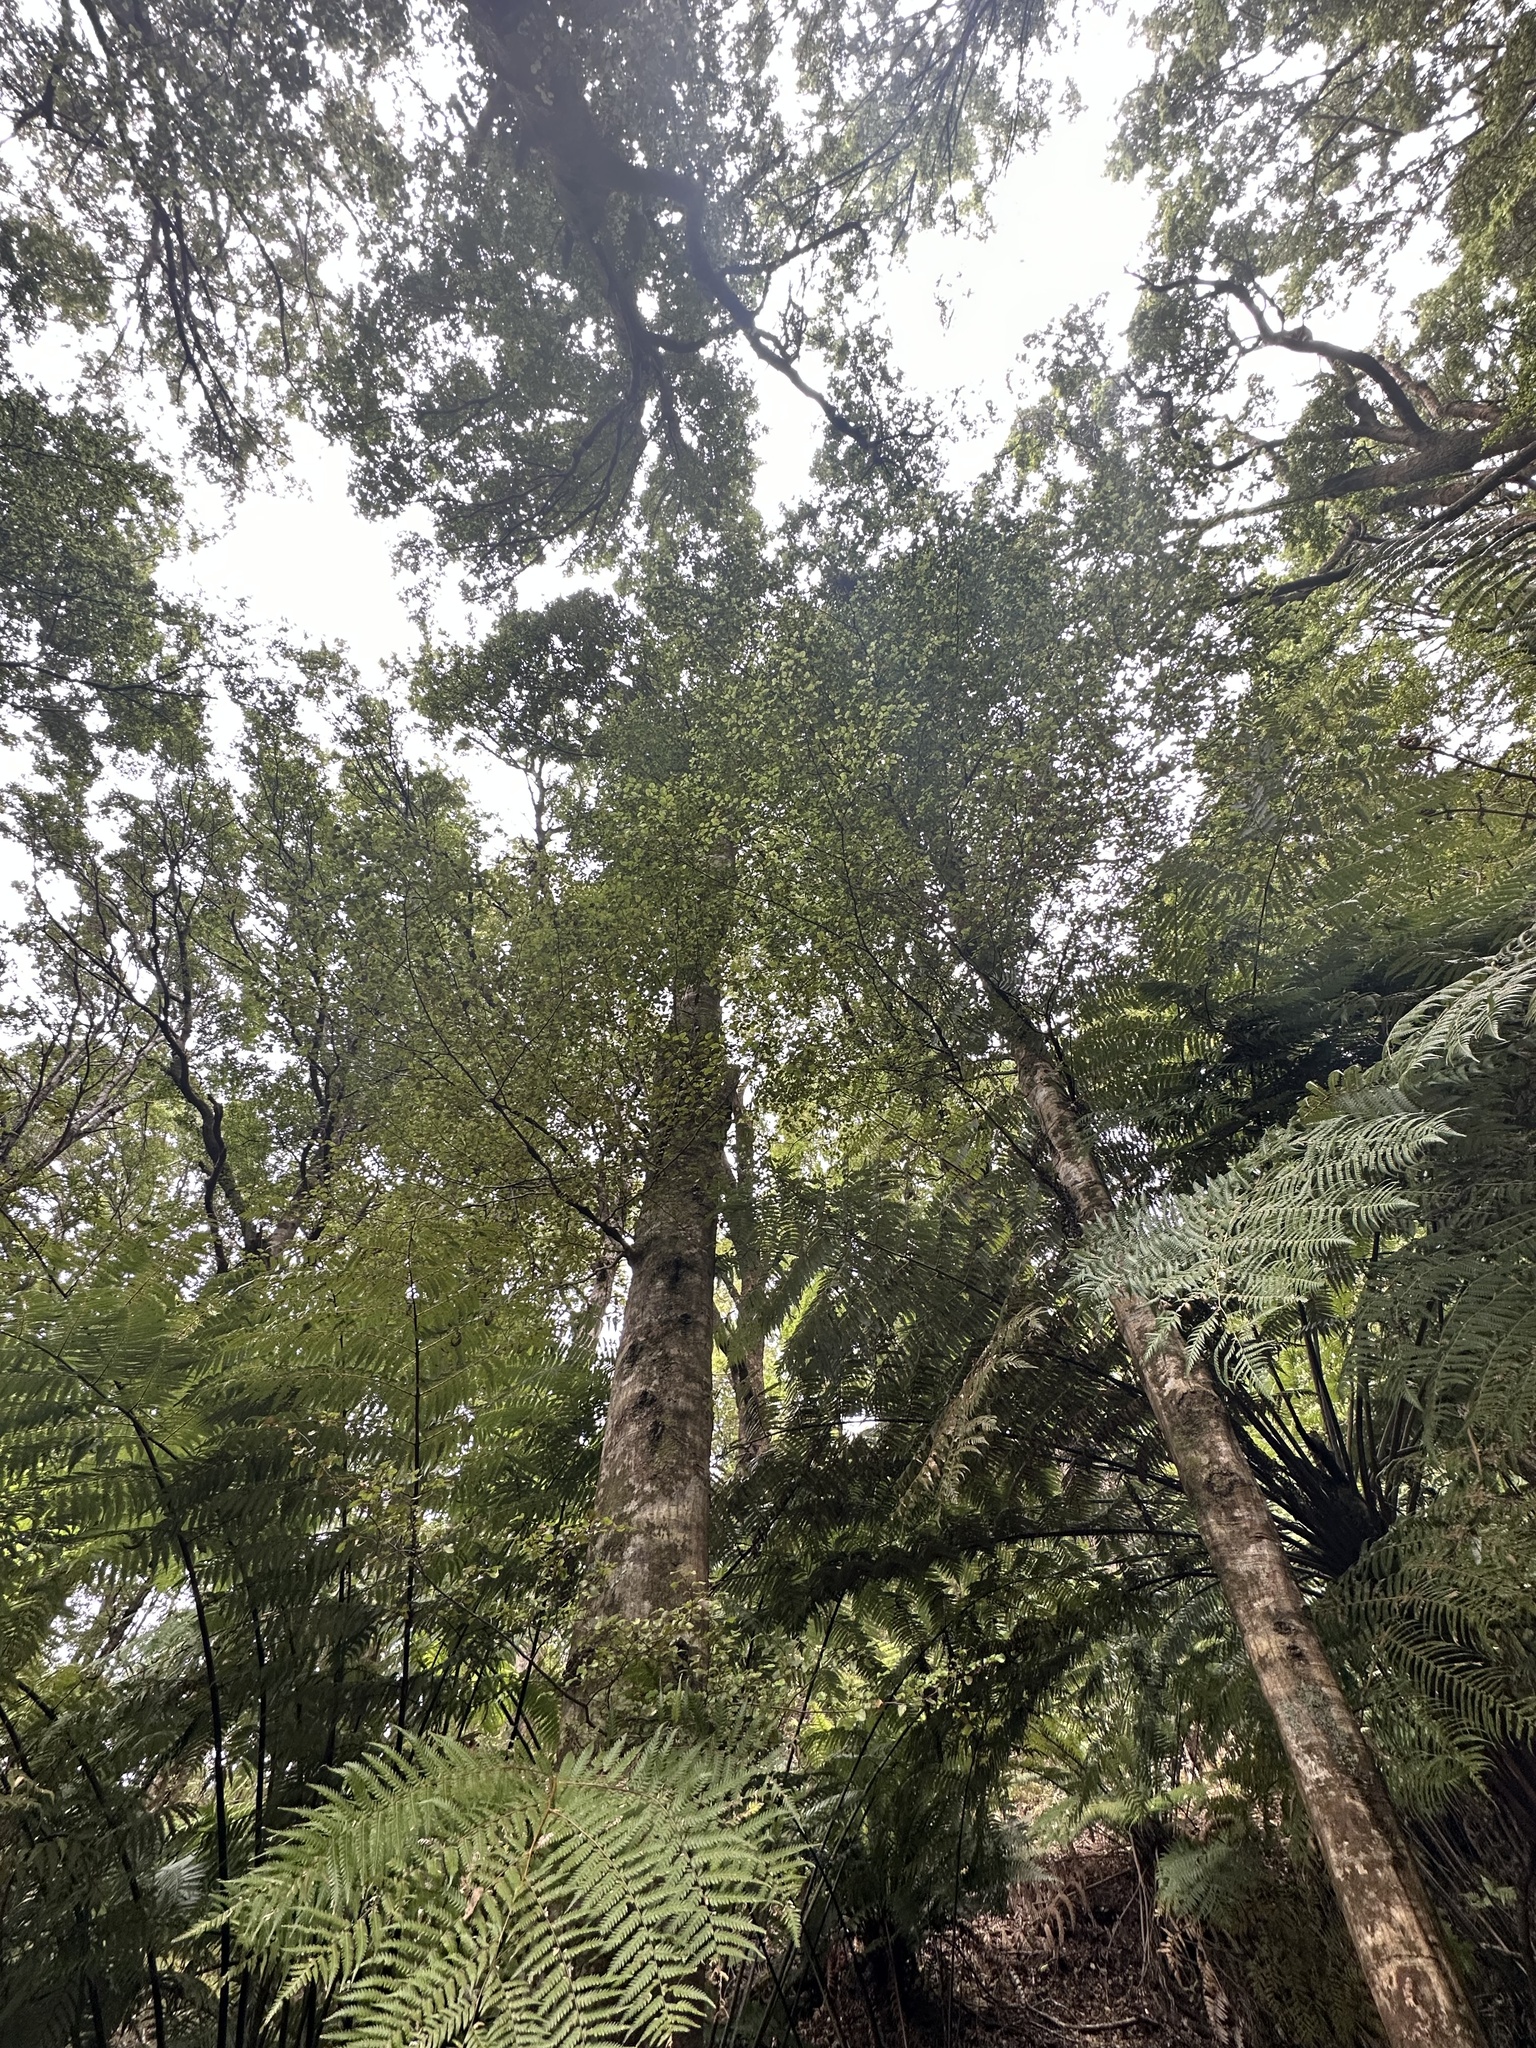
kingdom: Plantae
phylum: Tracheophyta
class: Magnoliopsida
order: Fagales
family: Nothofagaceae
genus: Nothofagus
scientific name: Nothofagus truncata
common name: Hard beech
